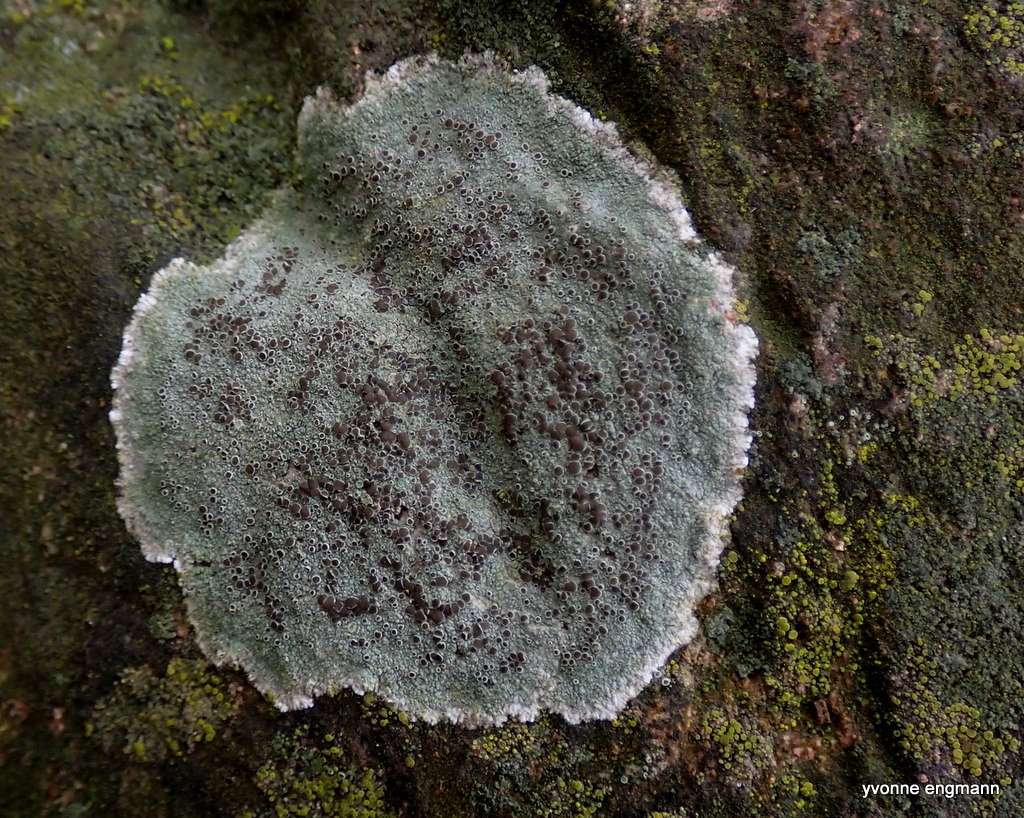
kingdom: Fungi
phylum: Ascomycota
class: Lecanoromycetes
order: Lecanorales
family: Lecanoraceae
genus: Lecanora
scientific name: Lecanora campestris
